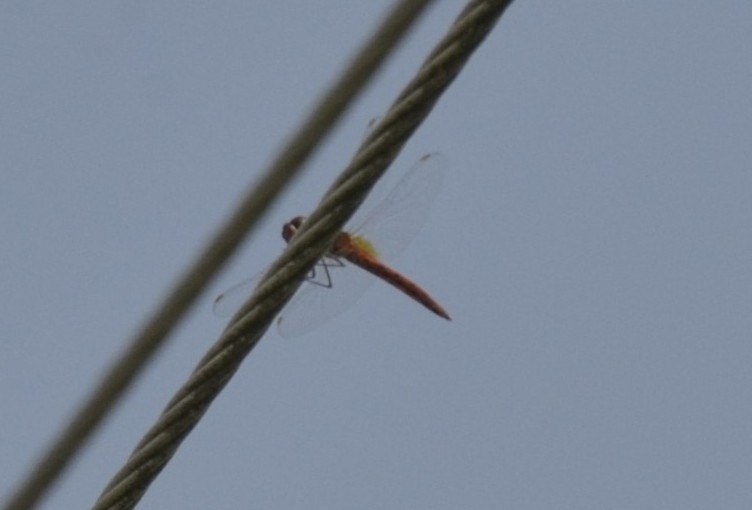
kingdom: Animalia
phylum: Arthropoda
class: Insecta
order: Odonata
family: Libellulidae
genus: Pantala
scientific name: Pantala flavescens
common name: Wandering glider
